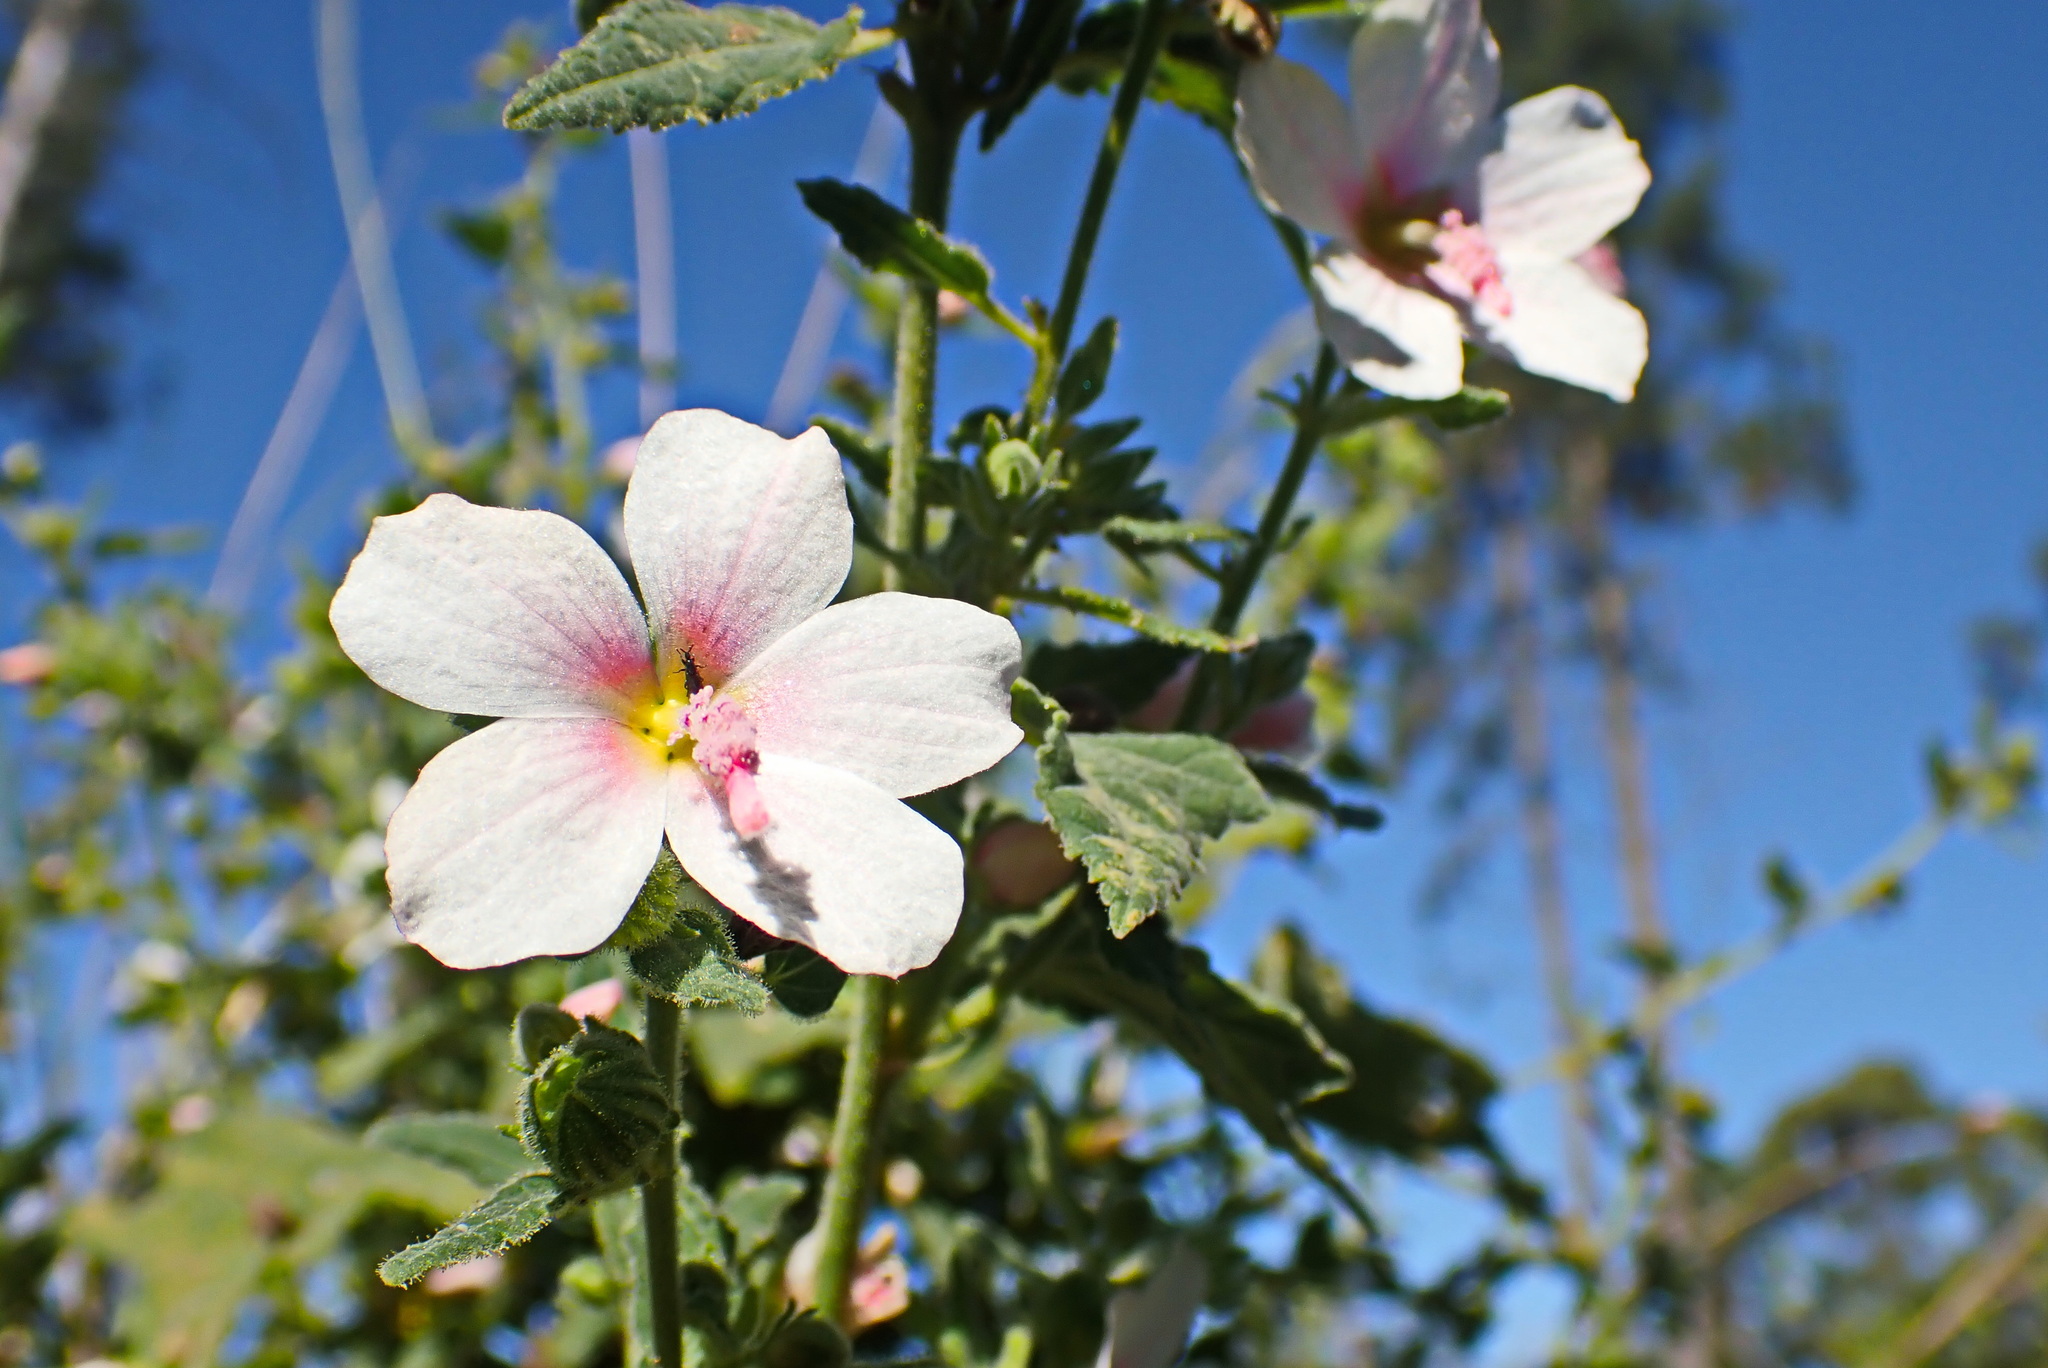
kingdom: Plantae
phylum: Tracheophyta
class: Magnoliopsida
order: Malvales
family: Malvaceae
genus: Pavonia
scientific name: Pavonia columella
